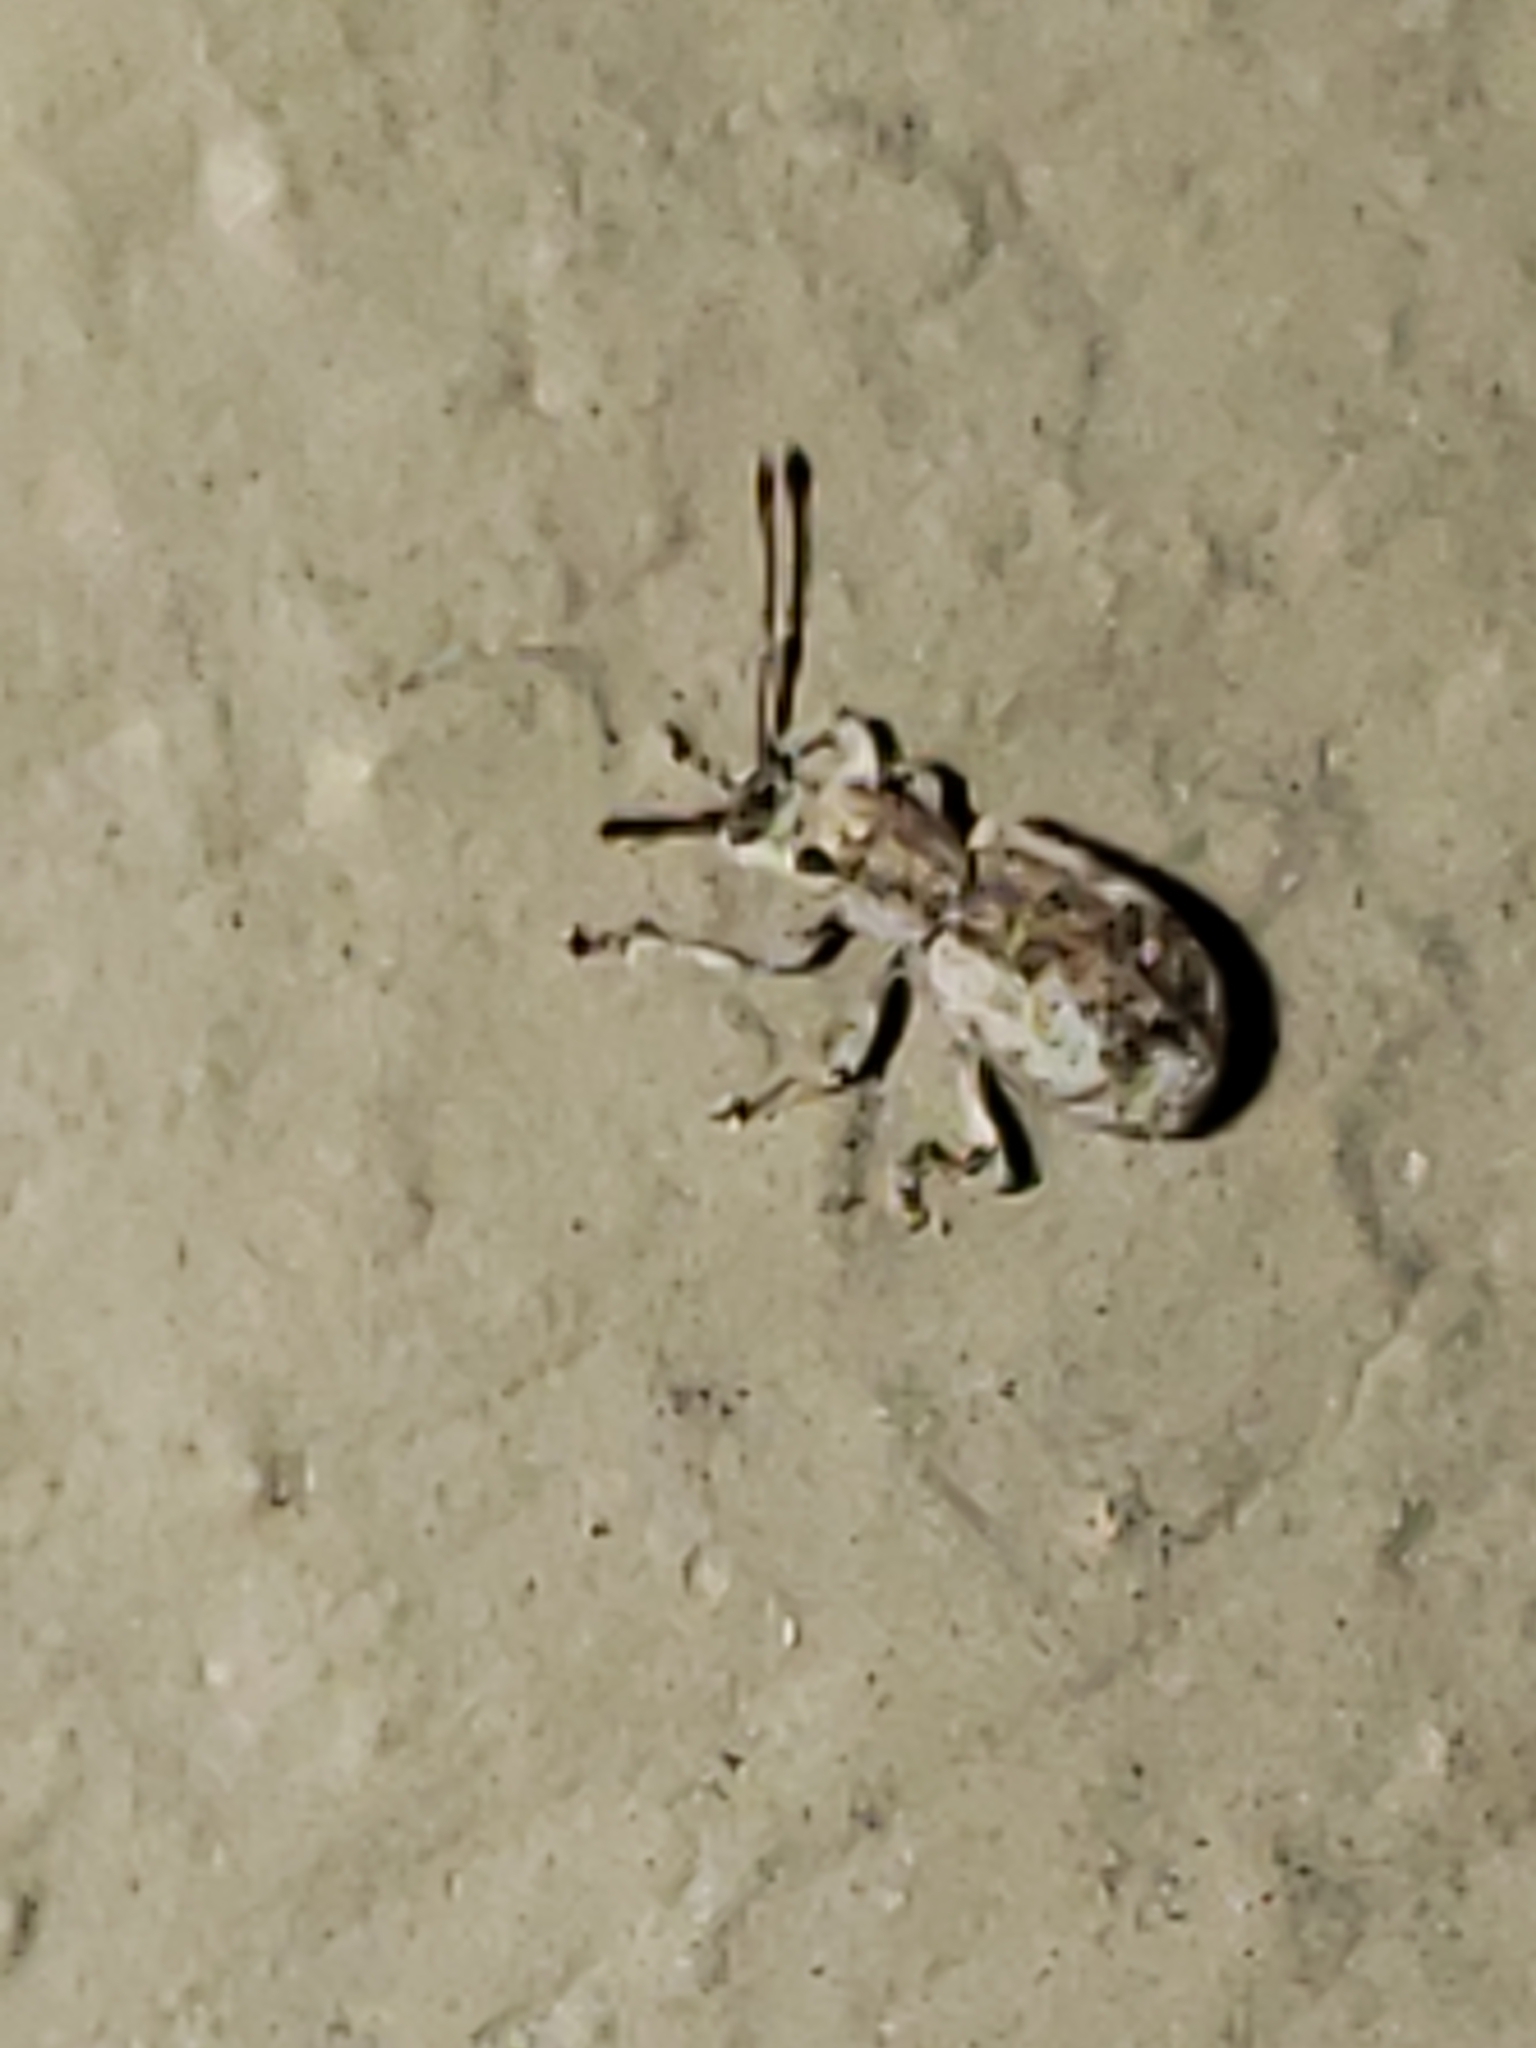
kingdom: Animalia
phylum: Arthropoda
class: Insecta
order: Coleoptera
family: Curculionidae
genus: Pseudoedophrys
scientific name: Pseudoedophrys hilleri
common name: Weevil
